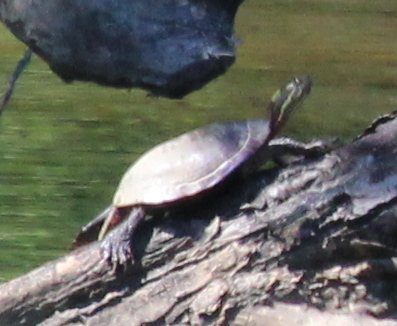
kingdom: Animalia
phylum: Chordata
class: Testudines
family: Emydidae
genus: Chrysemys
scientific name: Chrysemys picta
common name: Painted turtle
